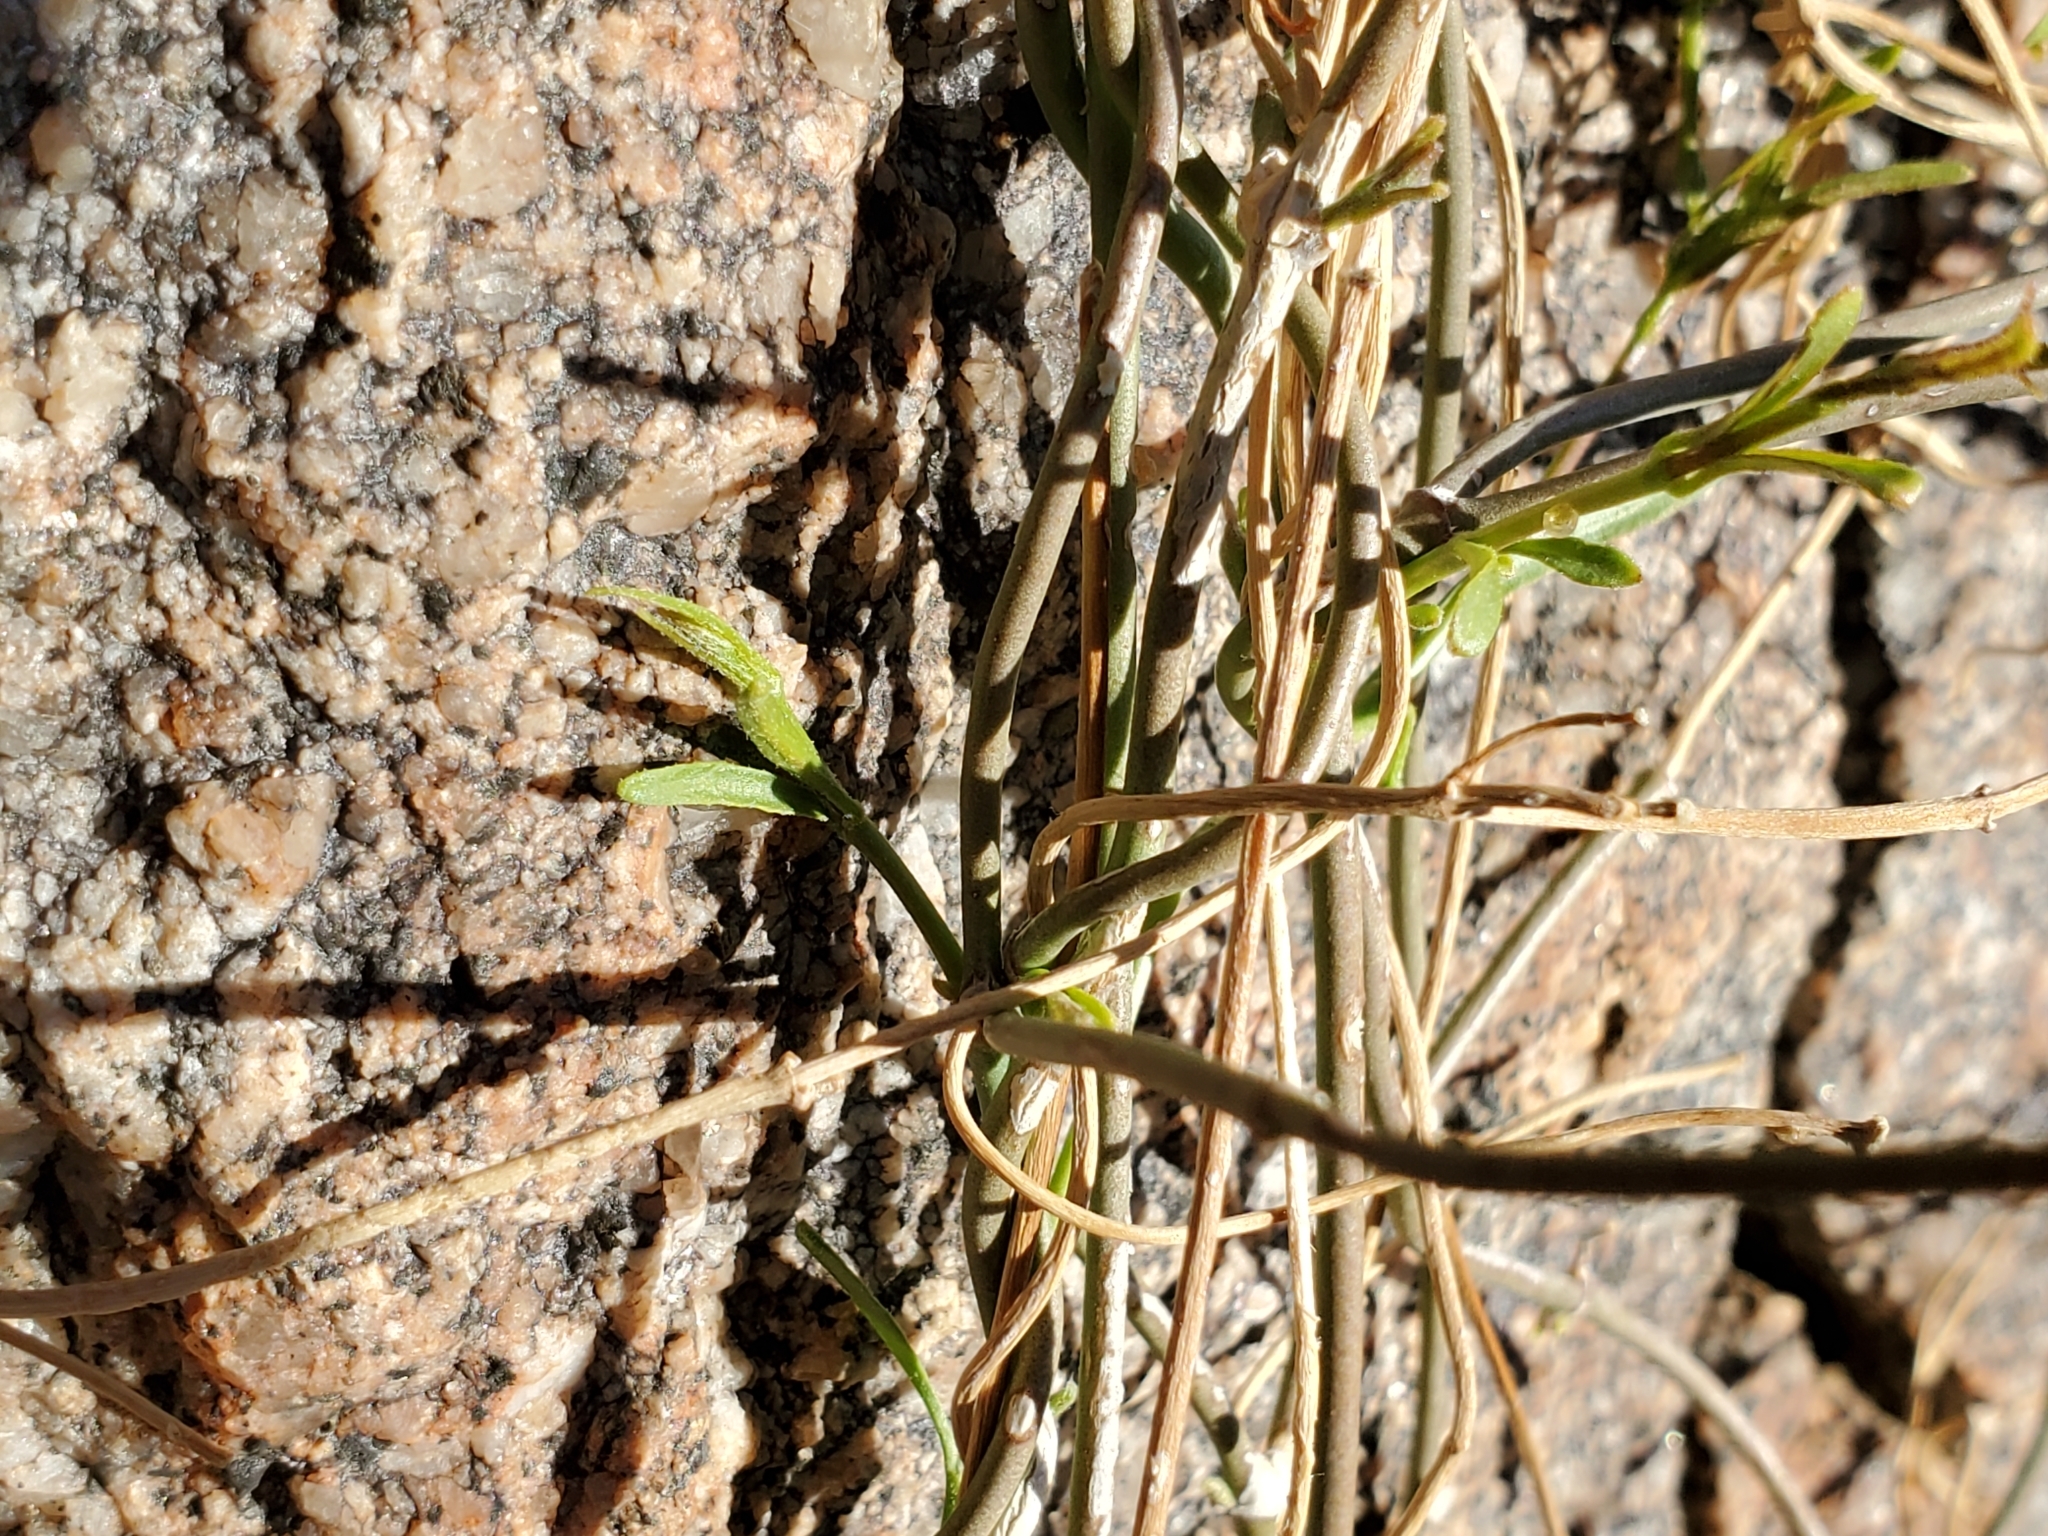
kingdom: Plantae
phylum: Tracheophyta
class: Magnoliopsida
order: Gentianales
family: Apocynaceae
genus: Funastrum
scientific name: Funastrum heterophyllum
